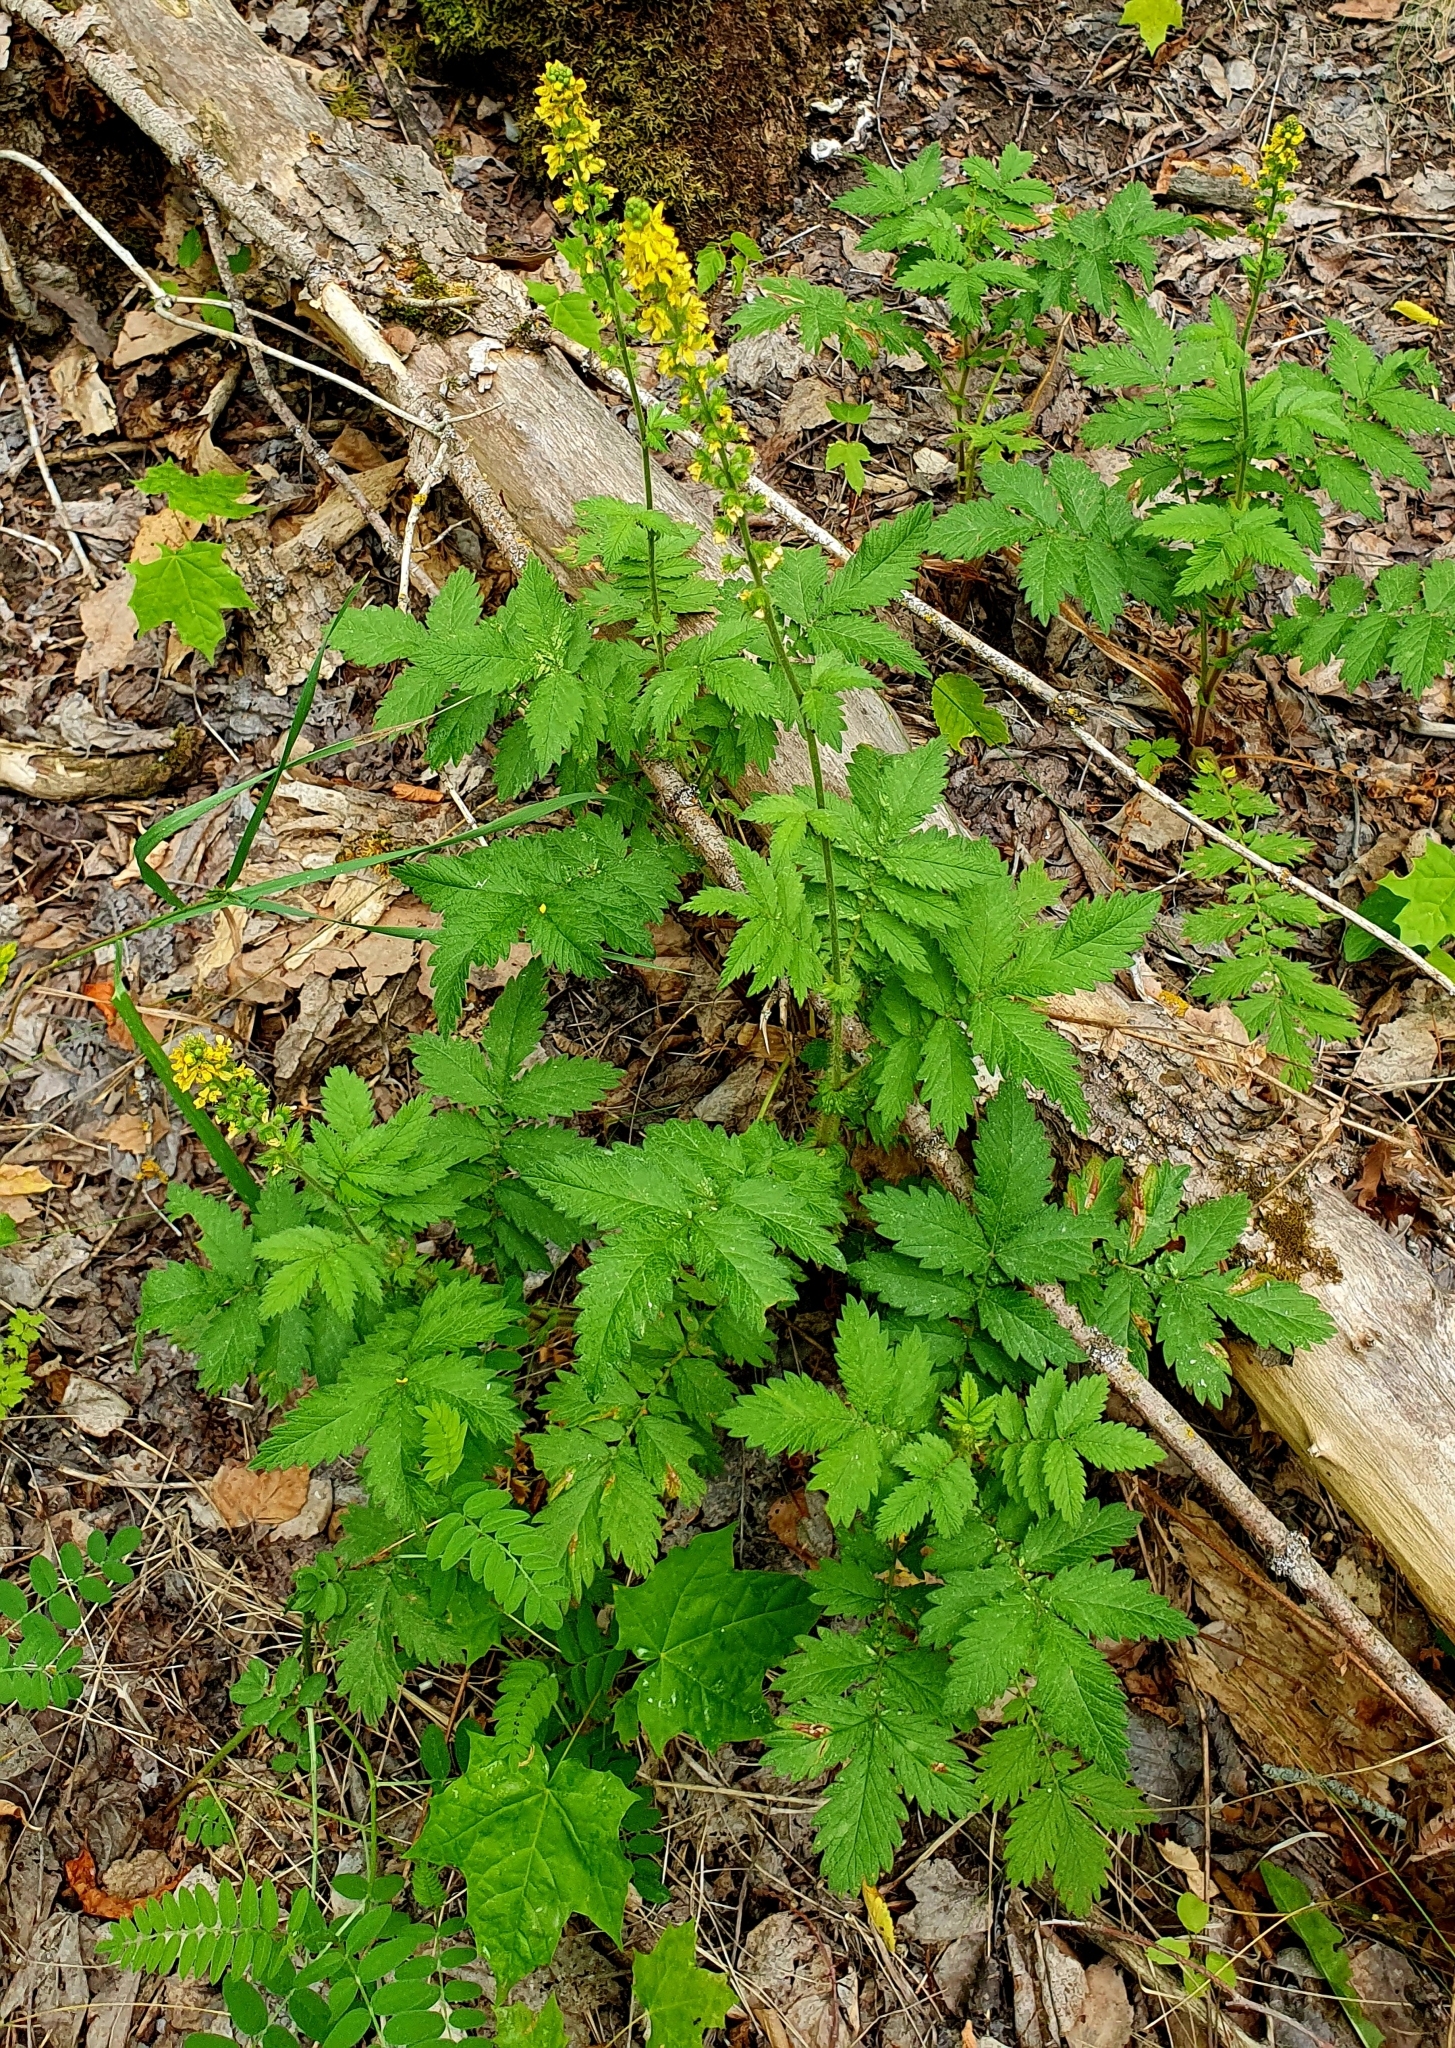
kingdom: Plantae
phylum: Tracheophyta
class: Magnoliopsida
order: Rosales
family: Rosaceae
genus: Agrimonia
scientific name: Agrimonia eupatoria
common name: Agrimony
